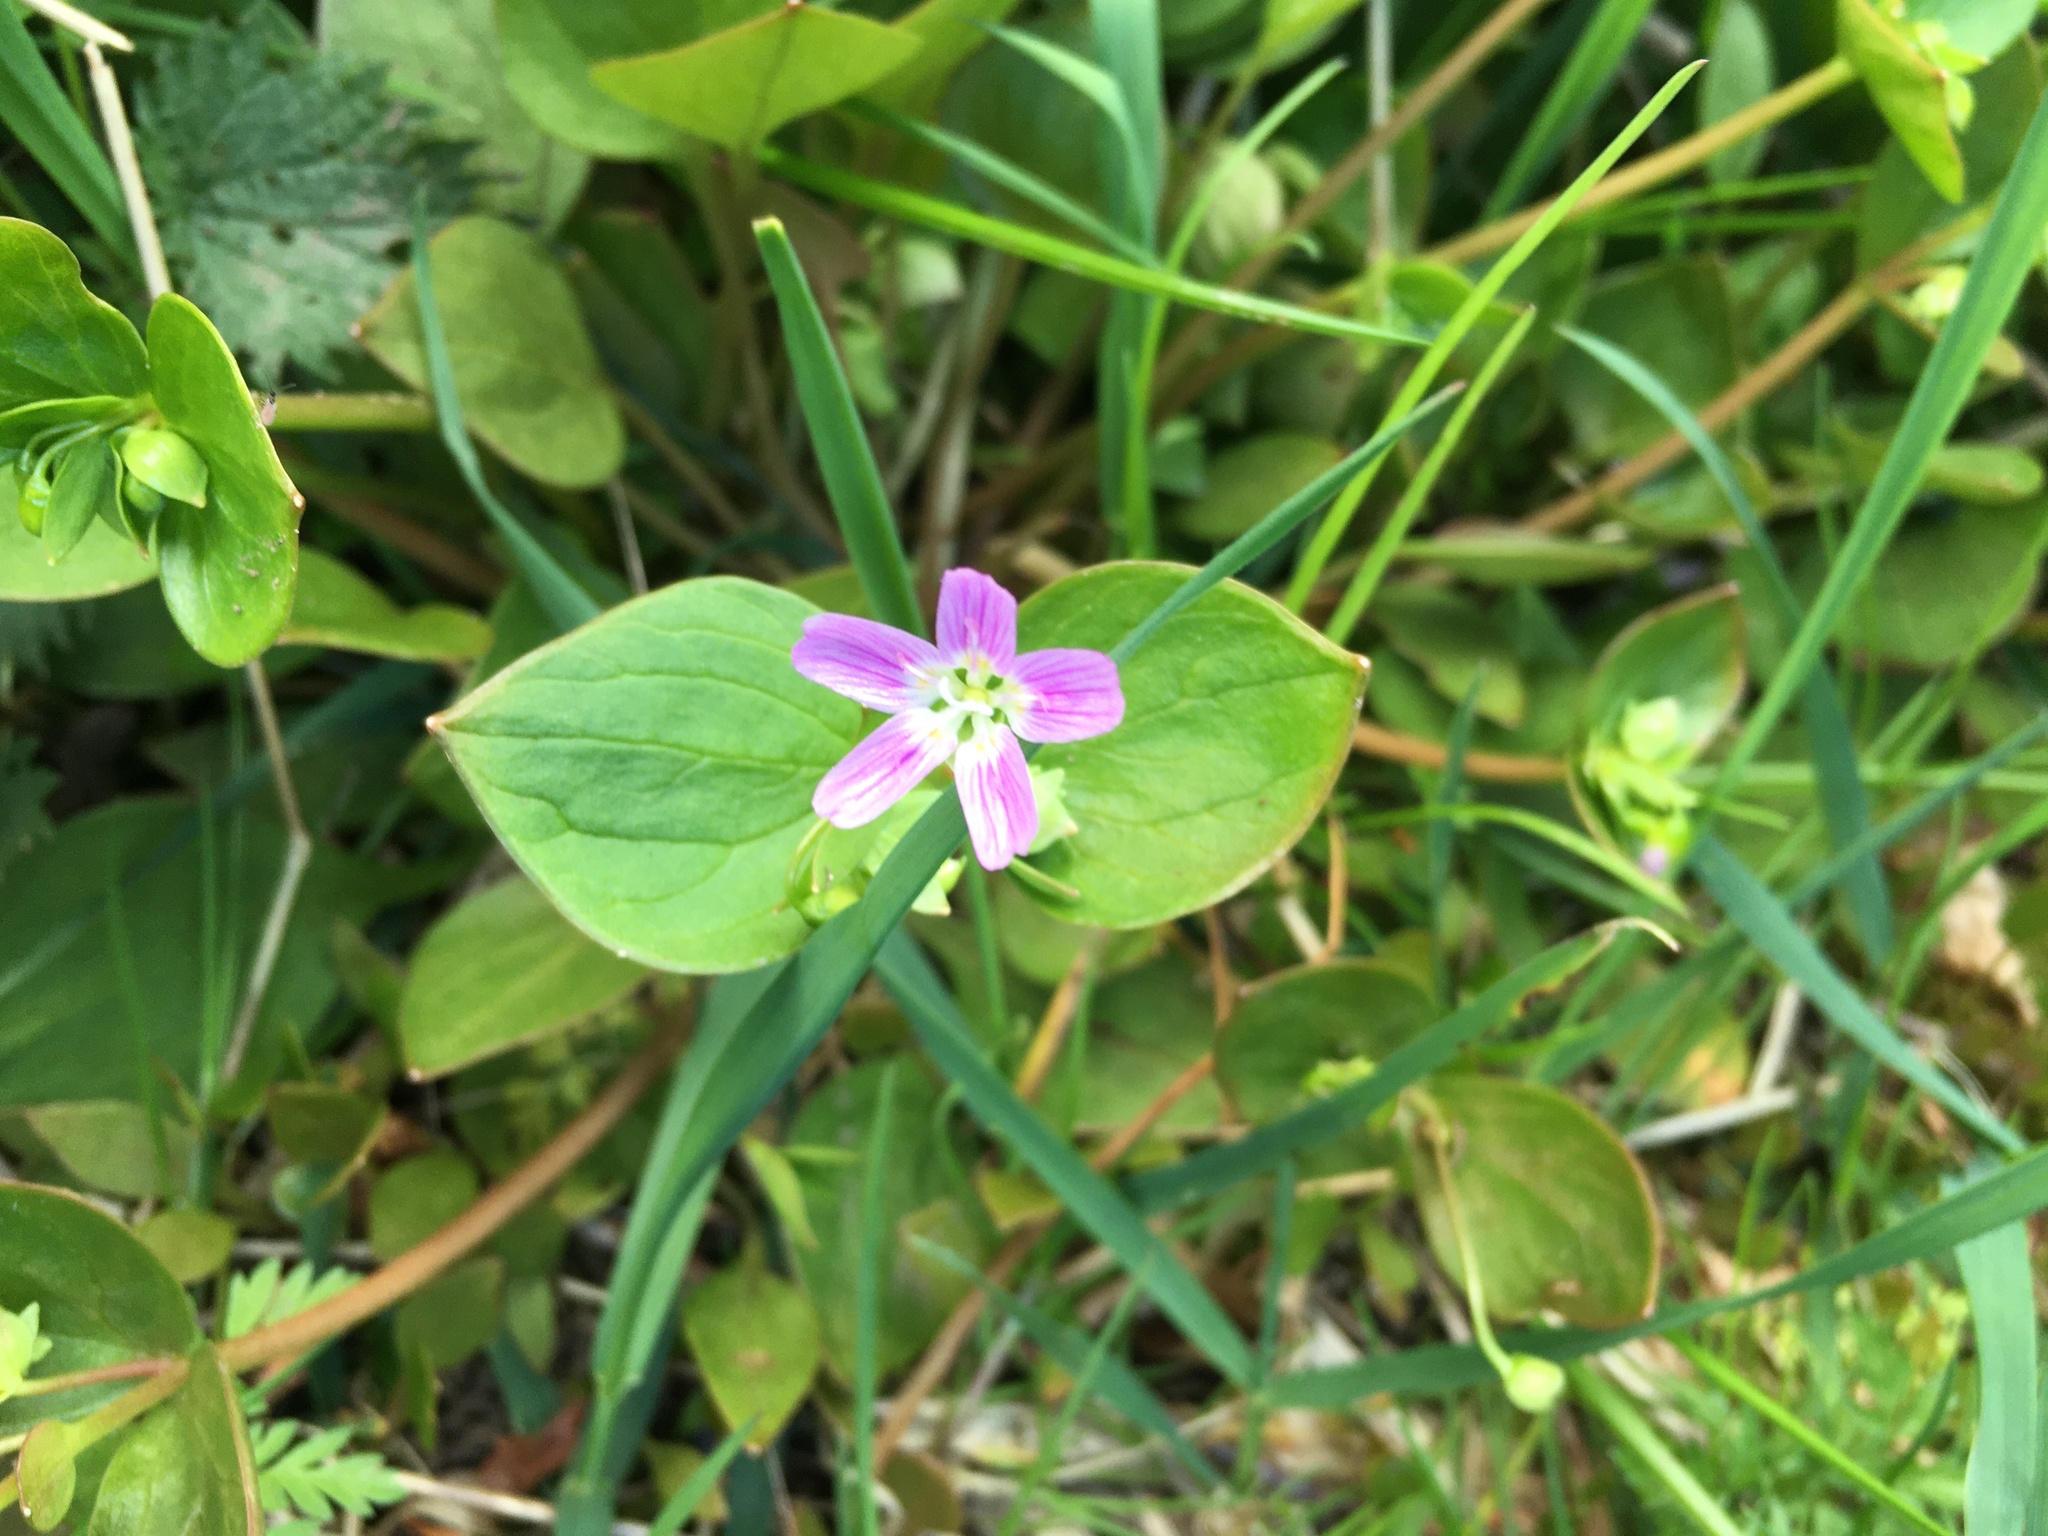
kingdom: Plantae
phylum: Tracheophyta
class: Magnoliopsida
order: Caryophyllales
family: Montiaceae
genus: Claytonia
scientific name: Claytonia sibirica
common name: Pink purslane
